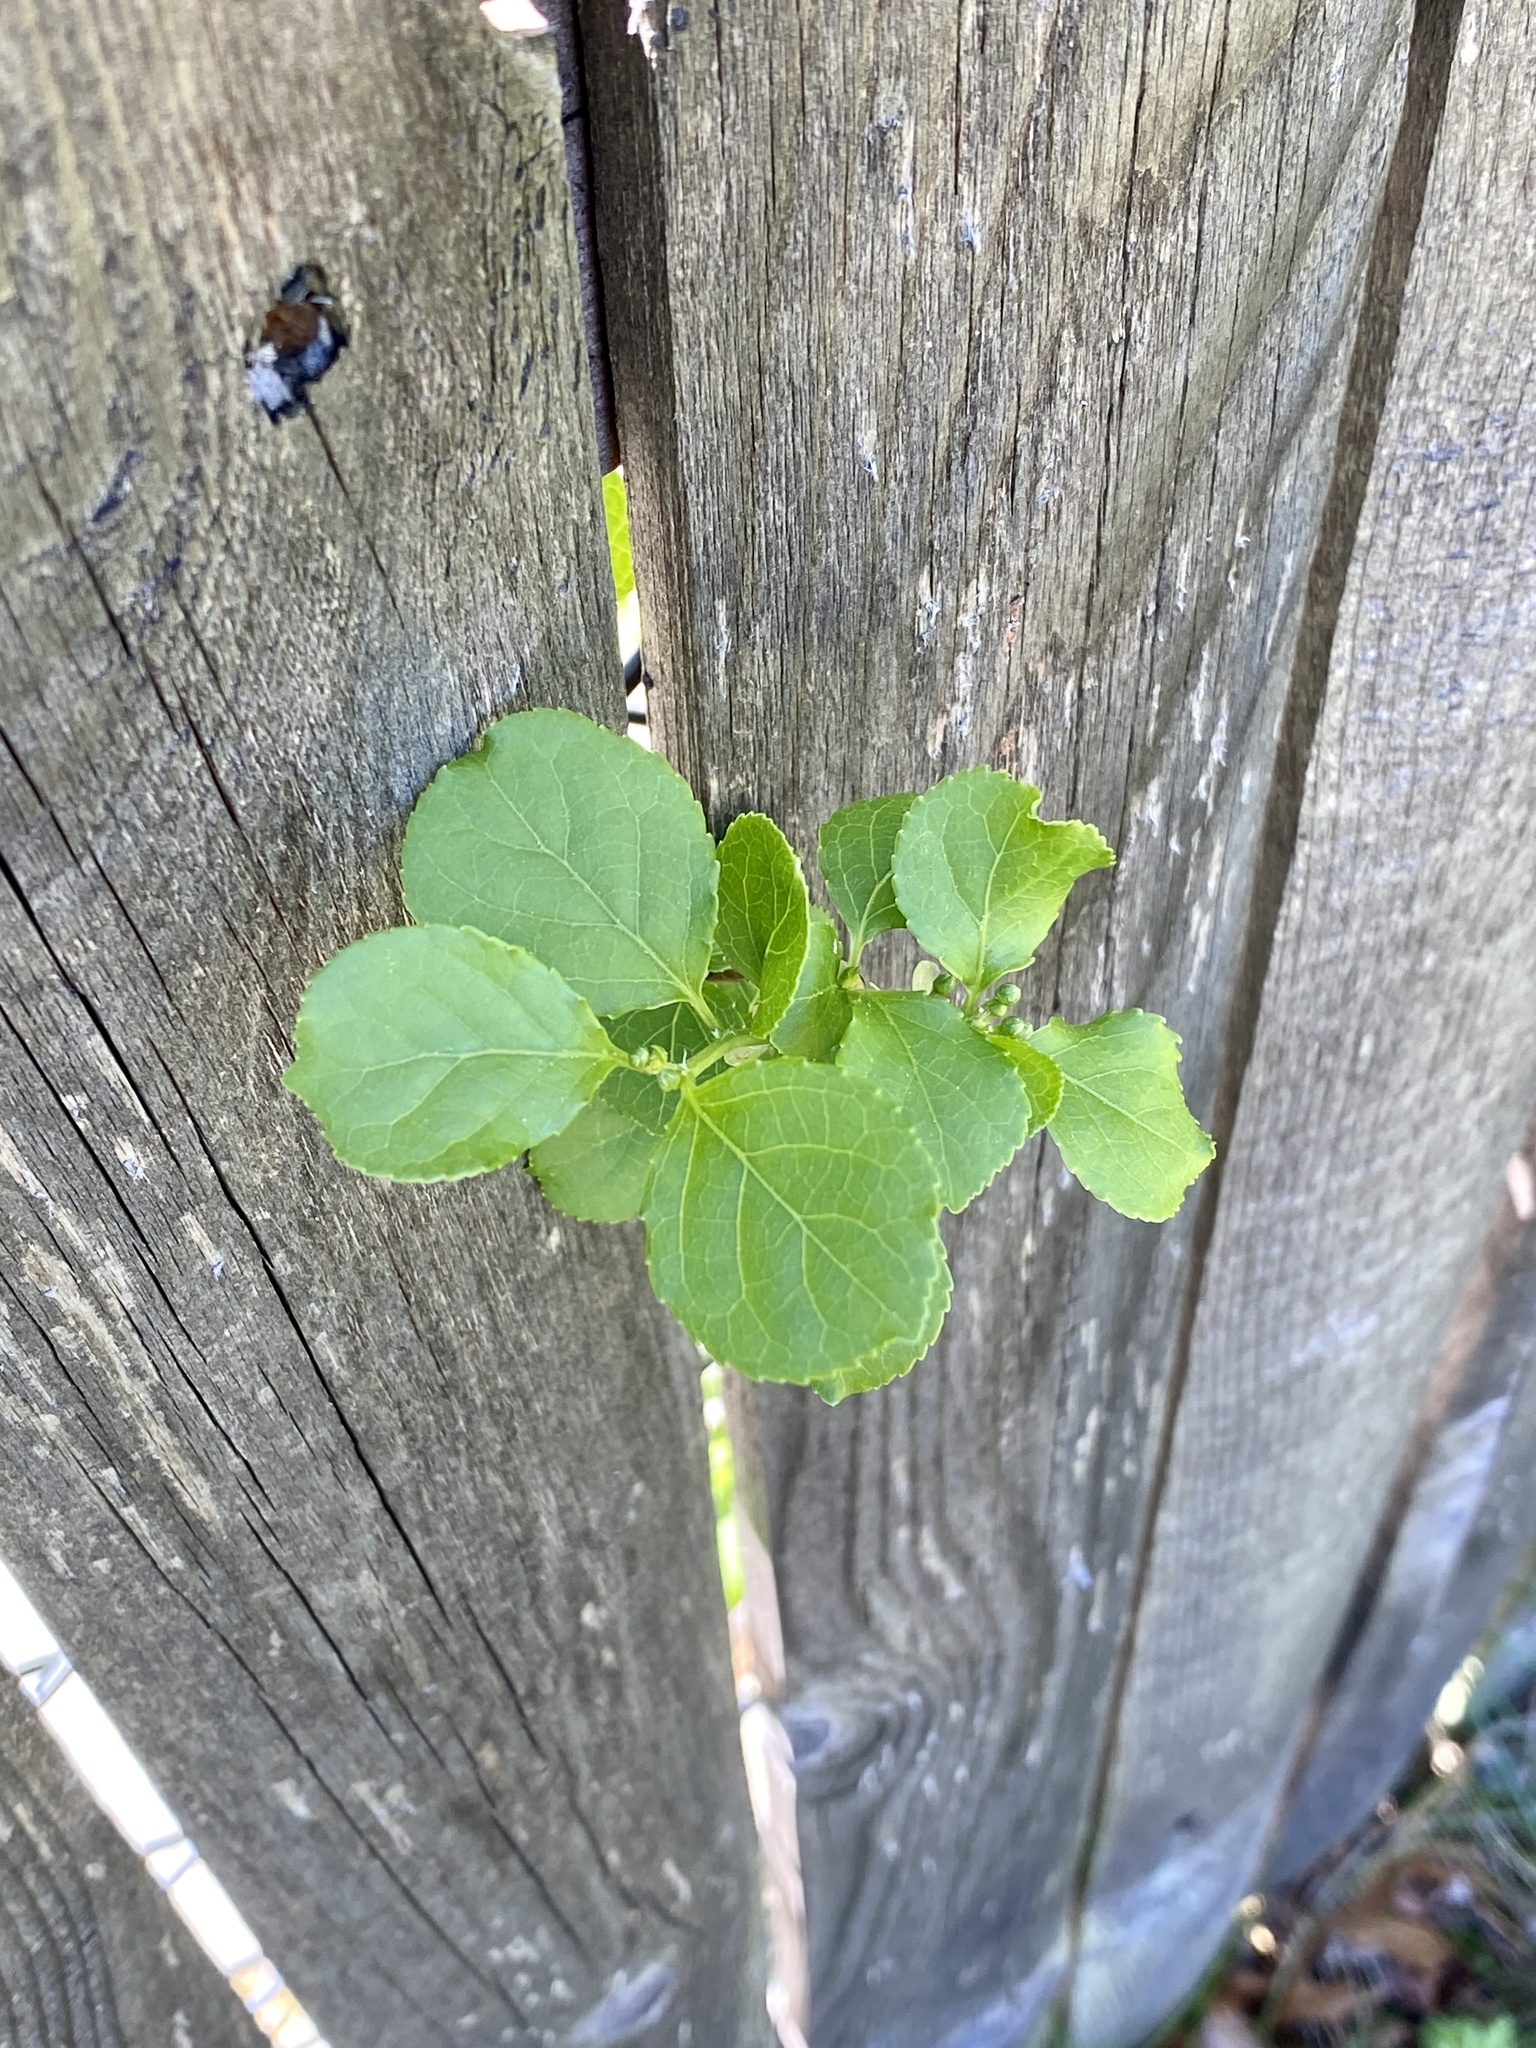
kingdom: Plantae
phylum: Tracheophyta
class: Magnoliopsida
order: Celastrales
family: Celastraceae
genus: Celastrus
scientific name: Celastrus orbiculatus
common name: Oriental bittersweet
